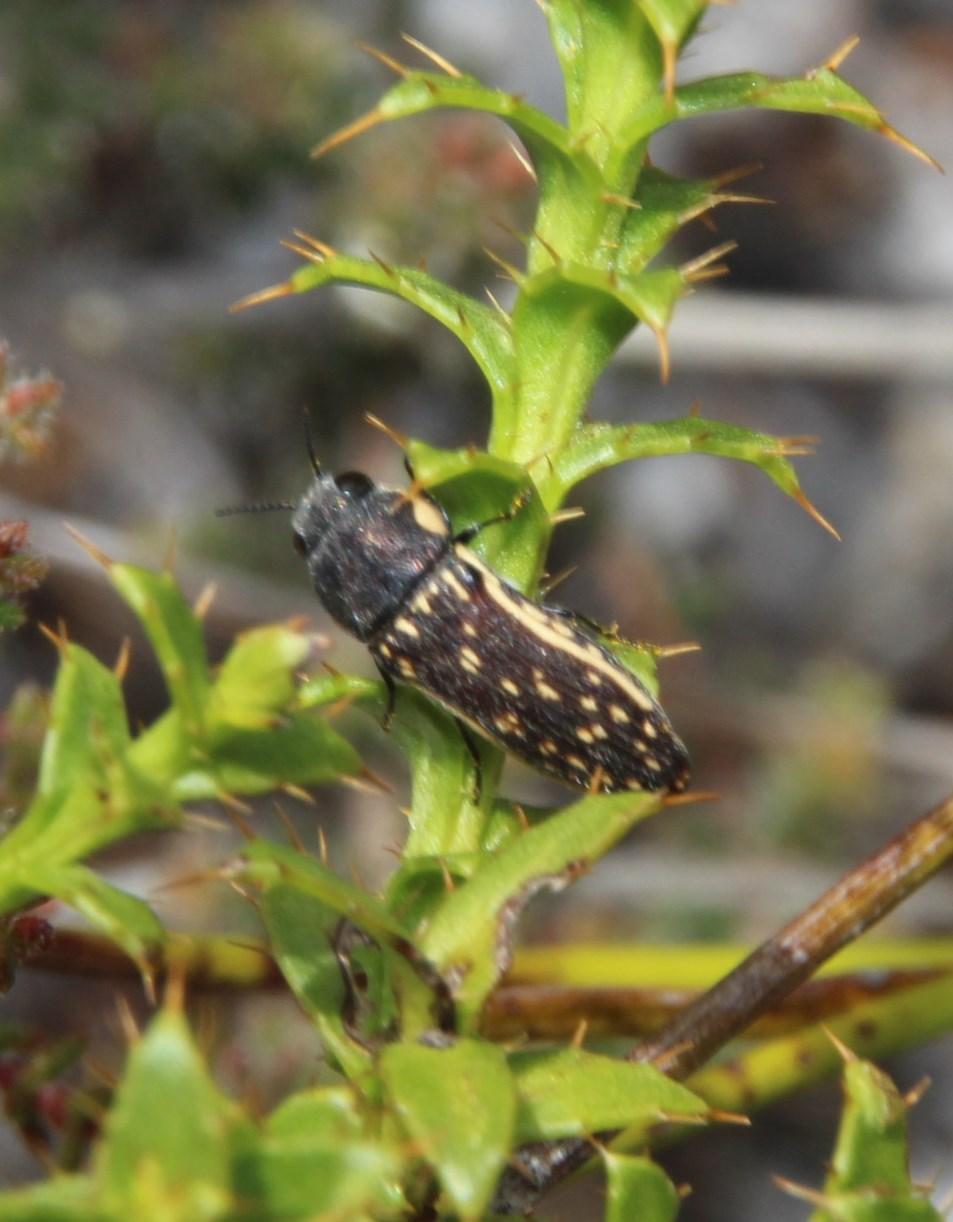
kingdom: Plantae
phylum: Tracheophyta
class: Magnoliopsida
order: Asterales
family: Asteraceae
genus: Cullumia
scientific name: Cullumia setosa
